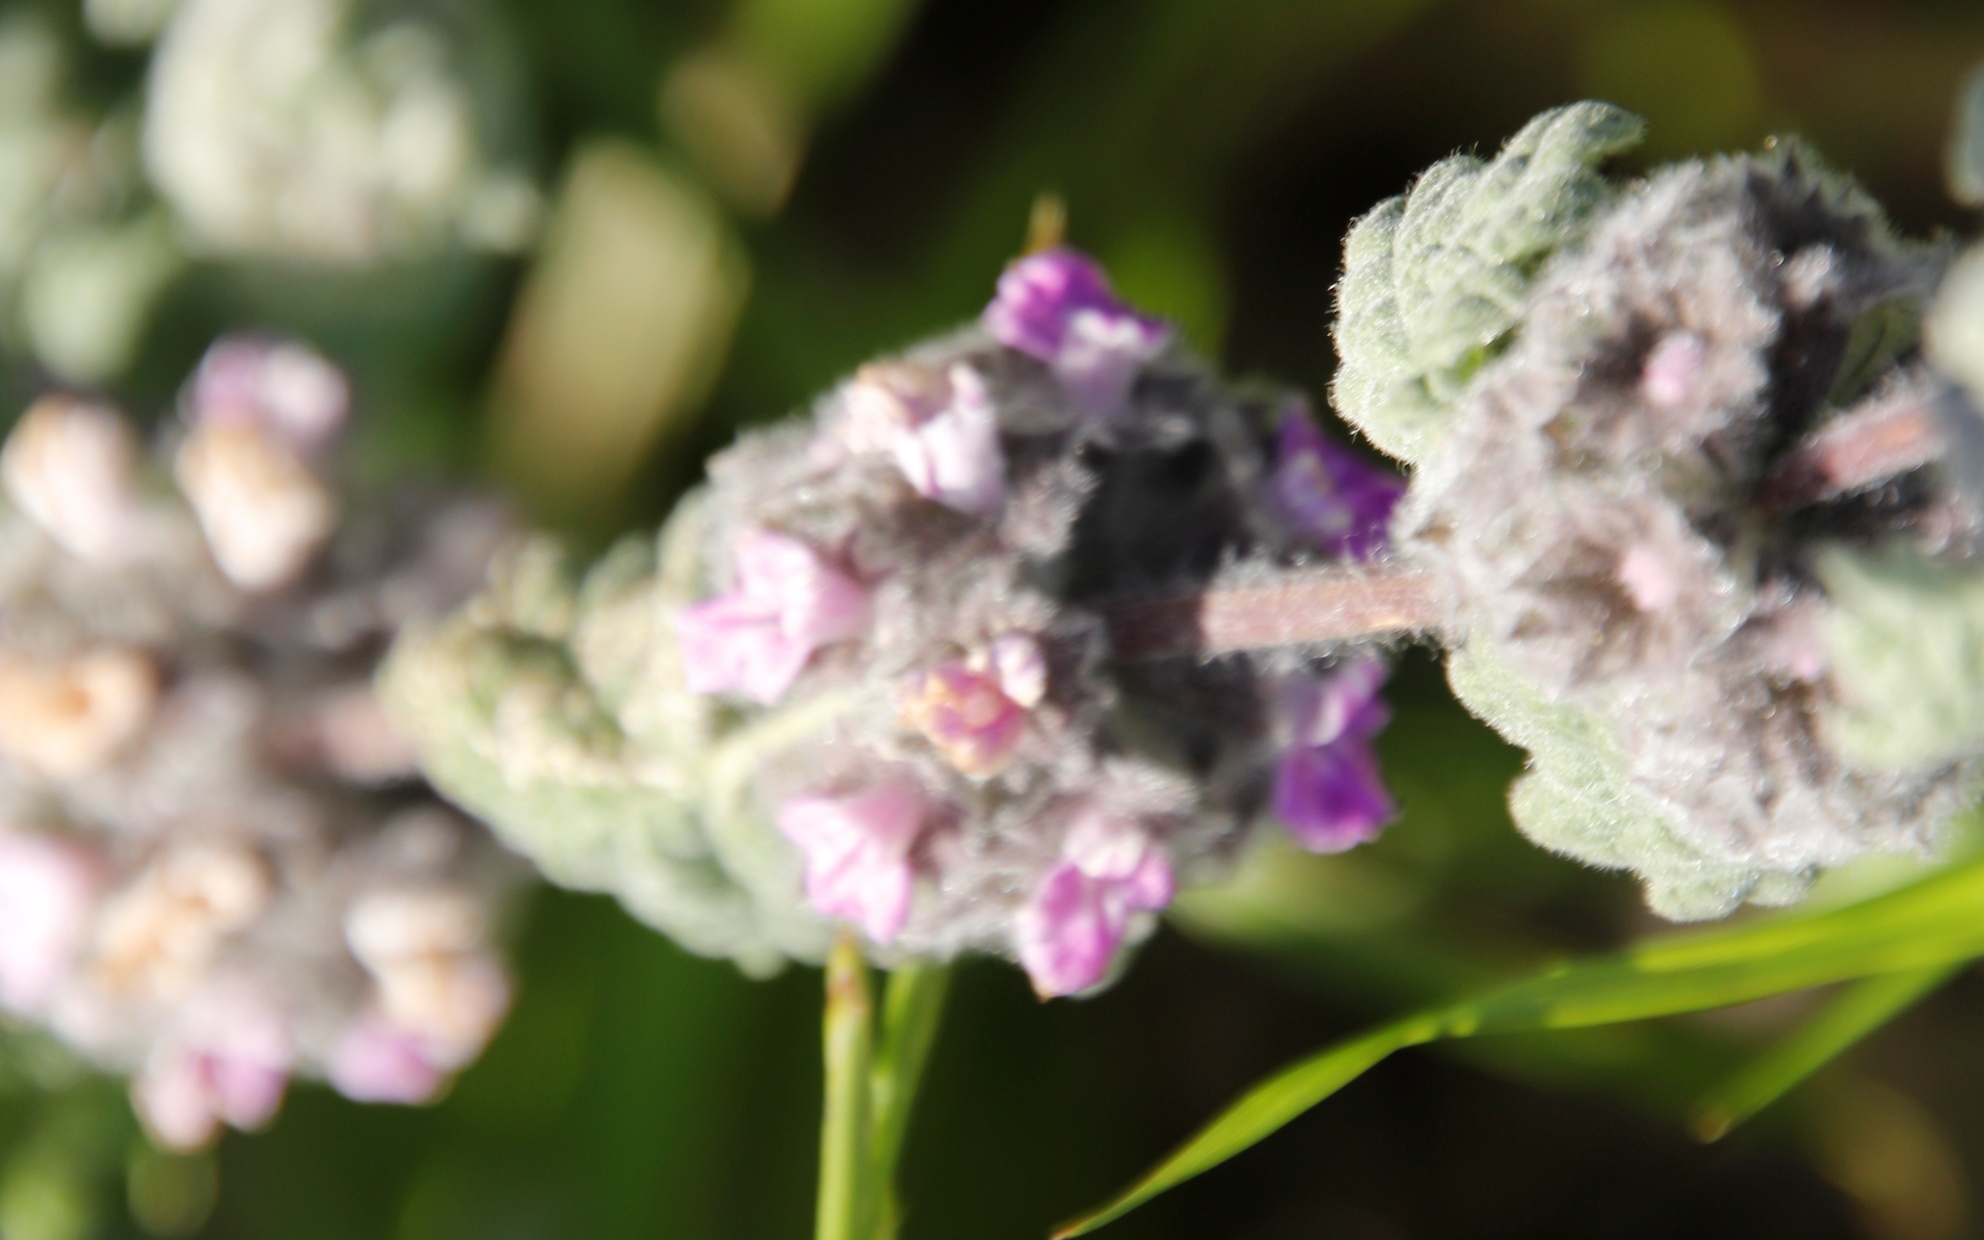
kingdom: Plantae
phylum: Tracheophyta
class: Magnoliopsida
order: Lamiales
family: Lamiaceae
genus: Pseudodictamnus
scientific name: Pseudodictamnus africanus
